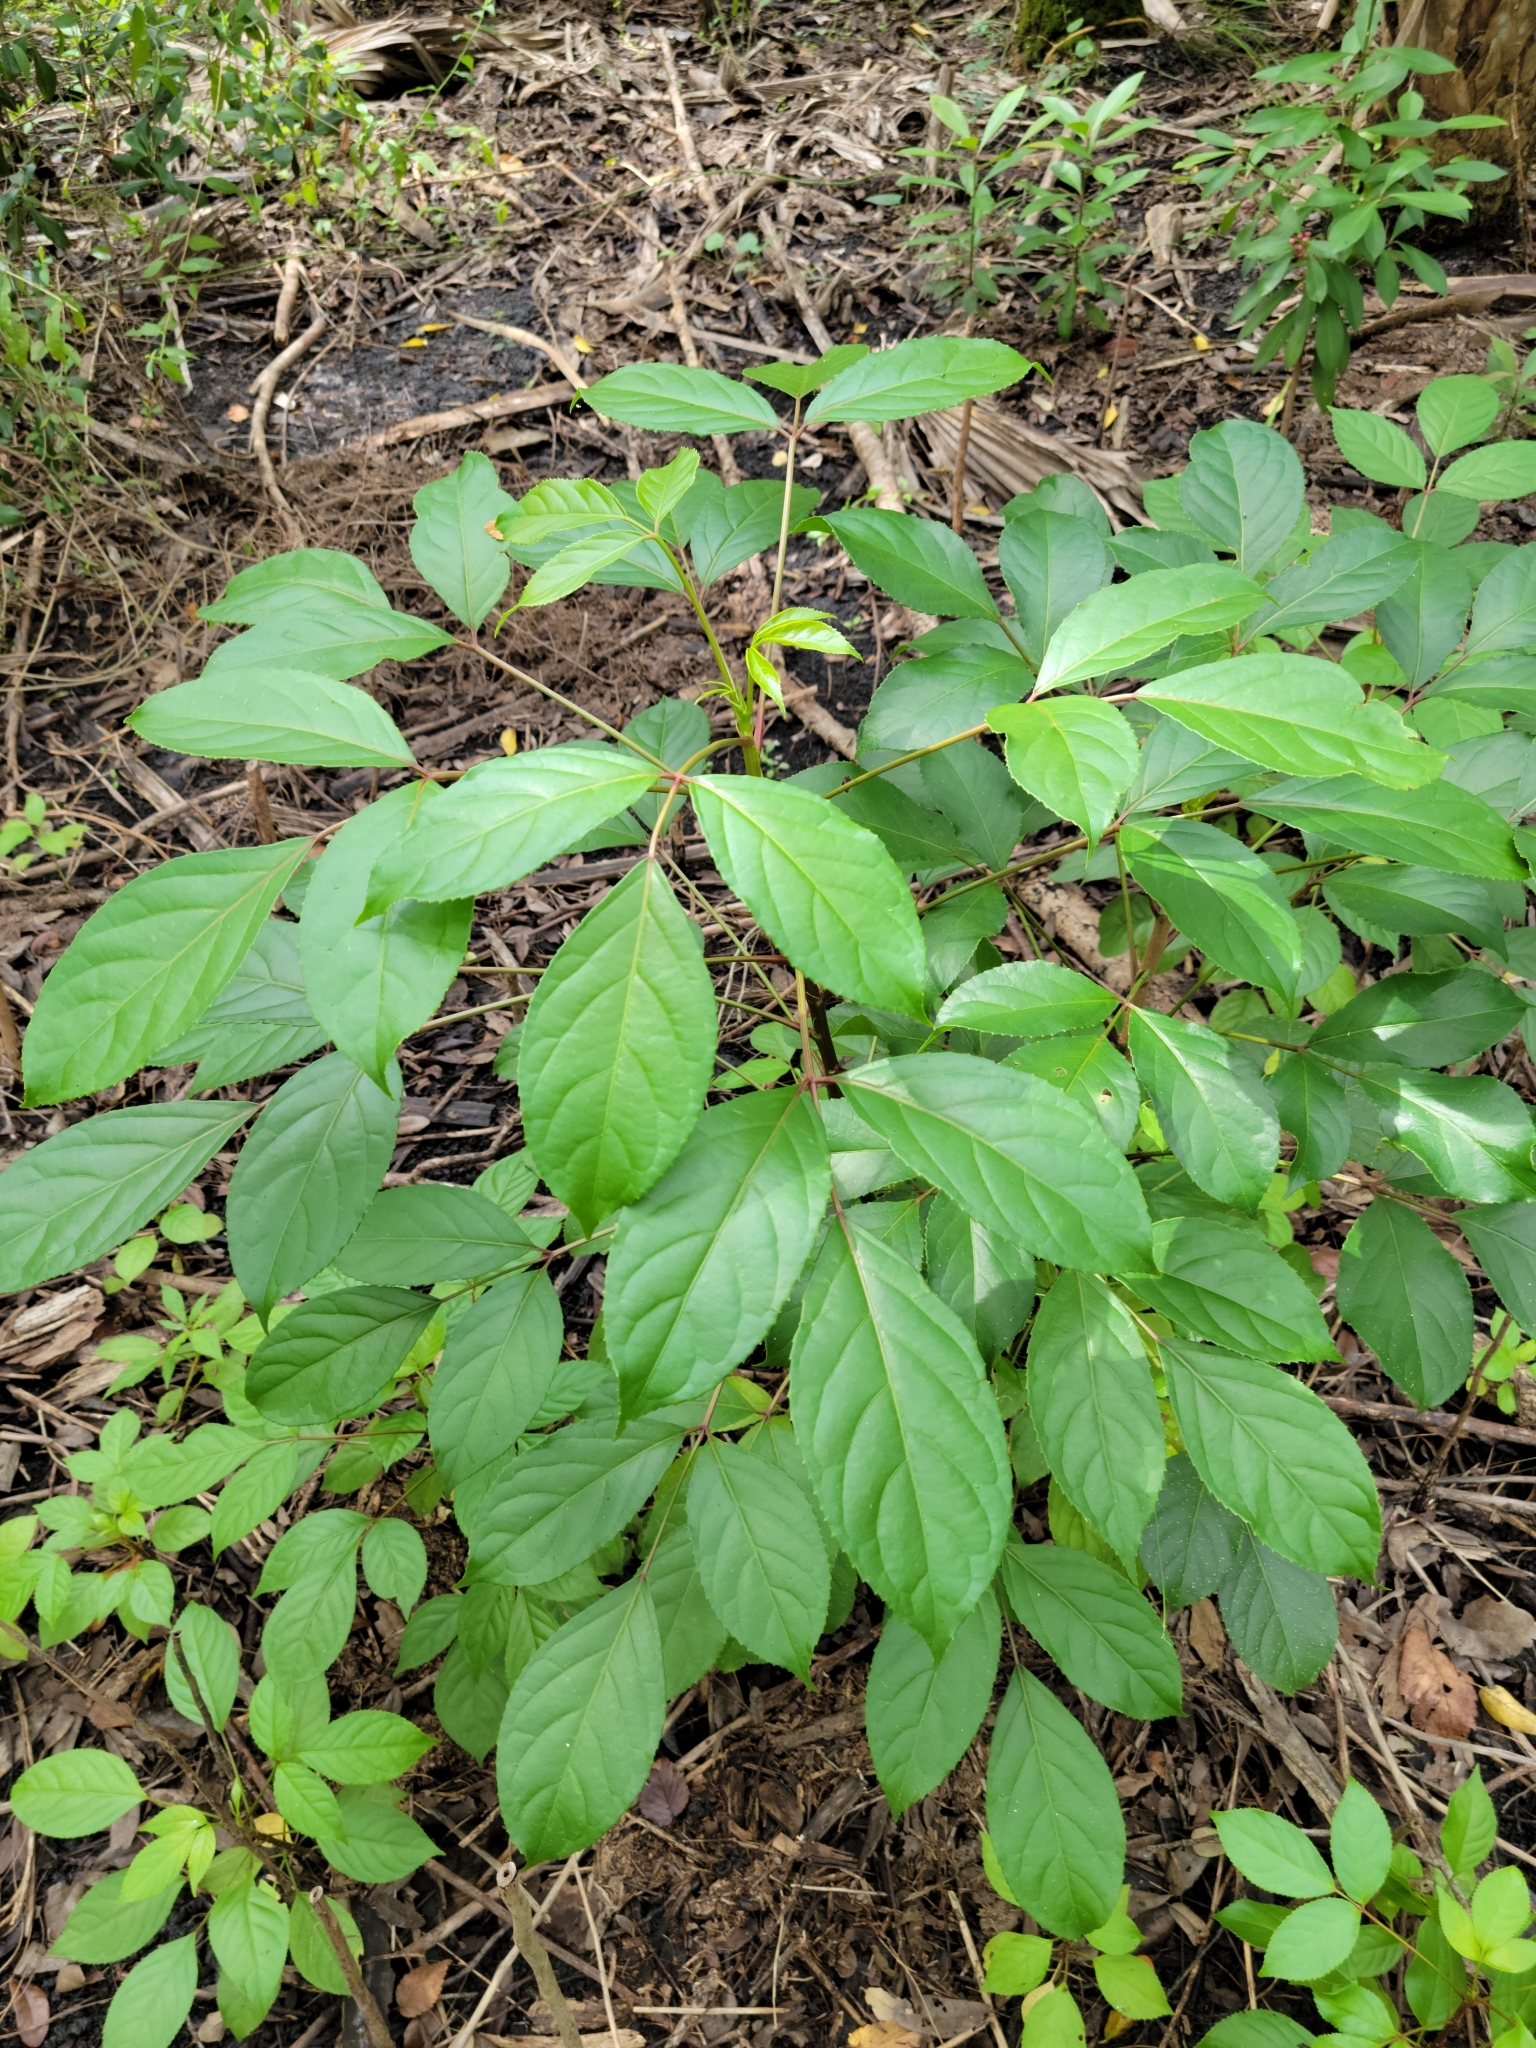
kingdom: Plantae
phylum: Tracheophyta
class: Magnoliopsida
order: Malpighiales
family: Phyllanthaceae
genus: Bischofia
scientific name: Bischofia javanica
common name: Javanese bishopwood
